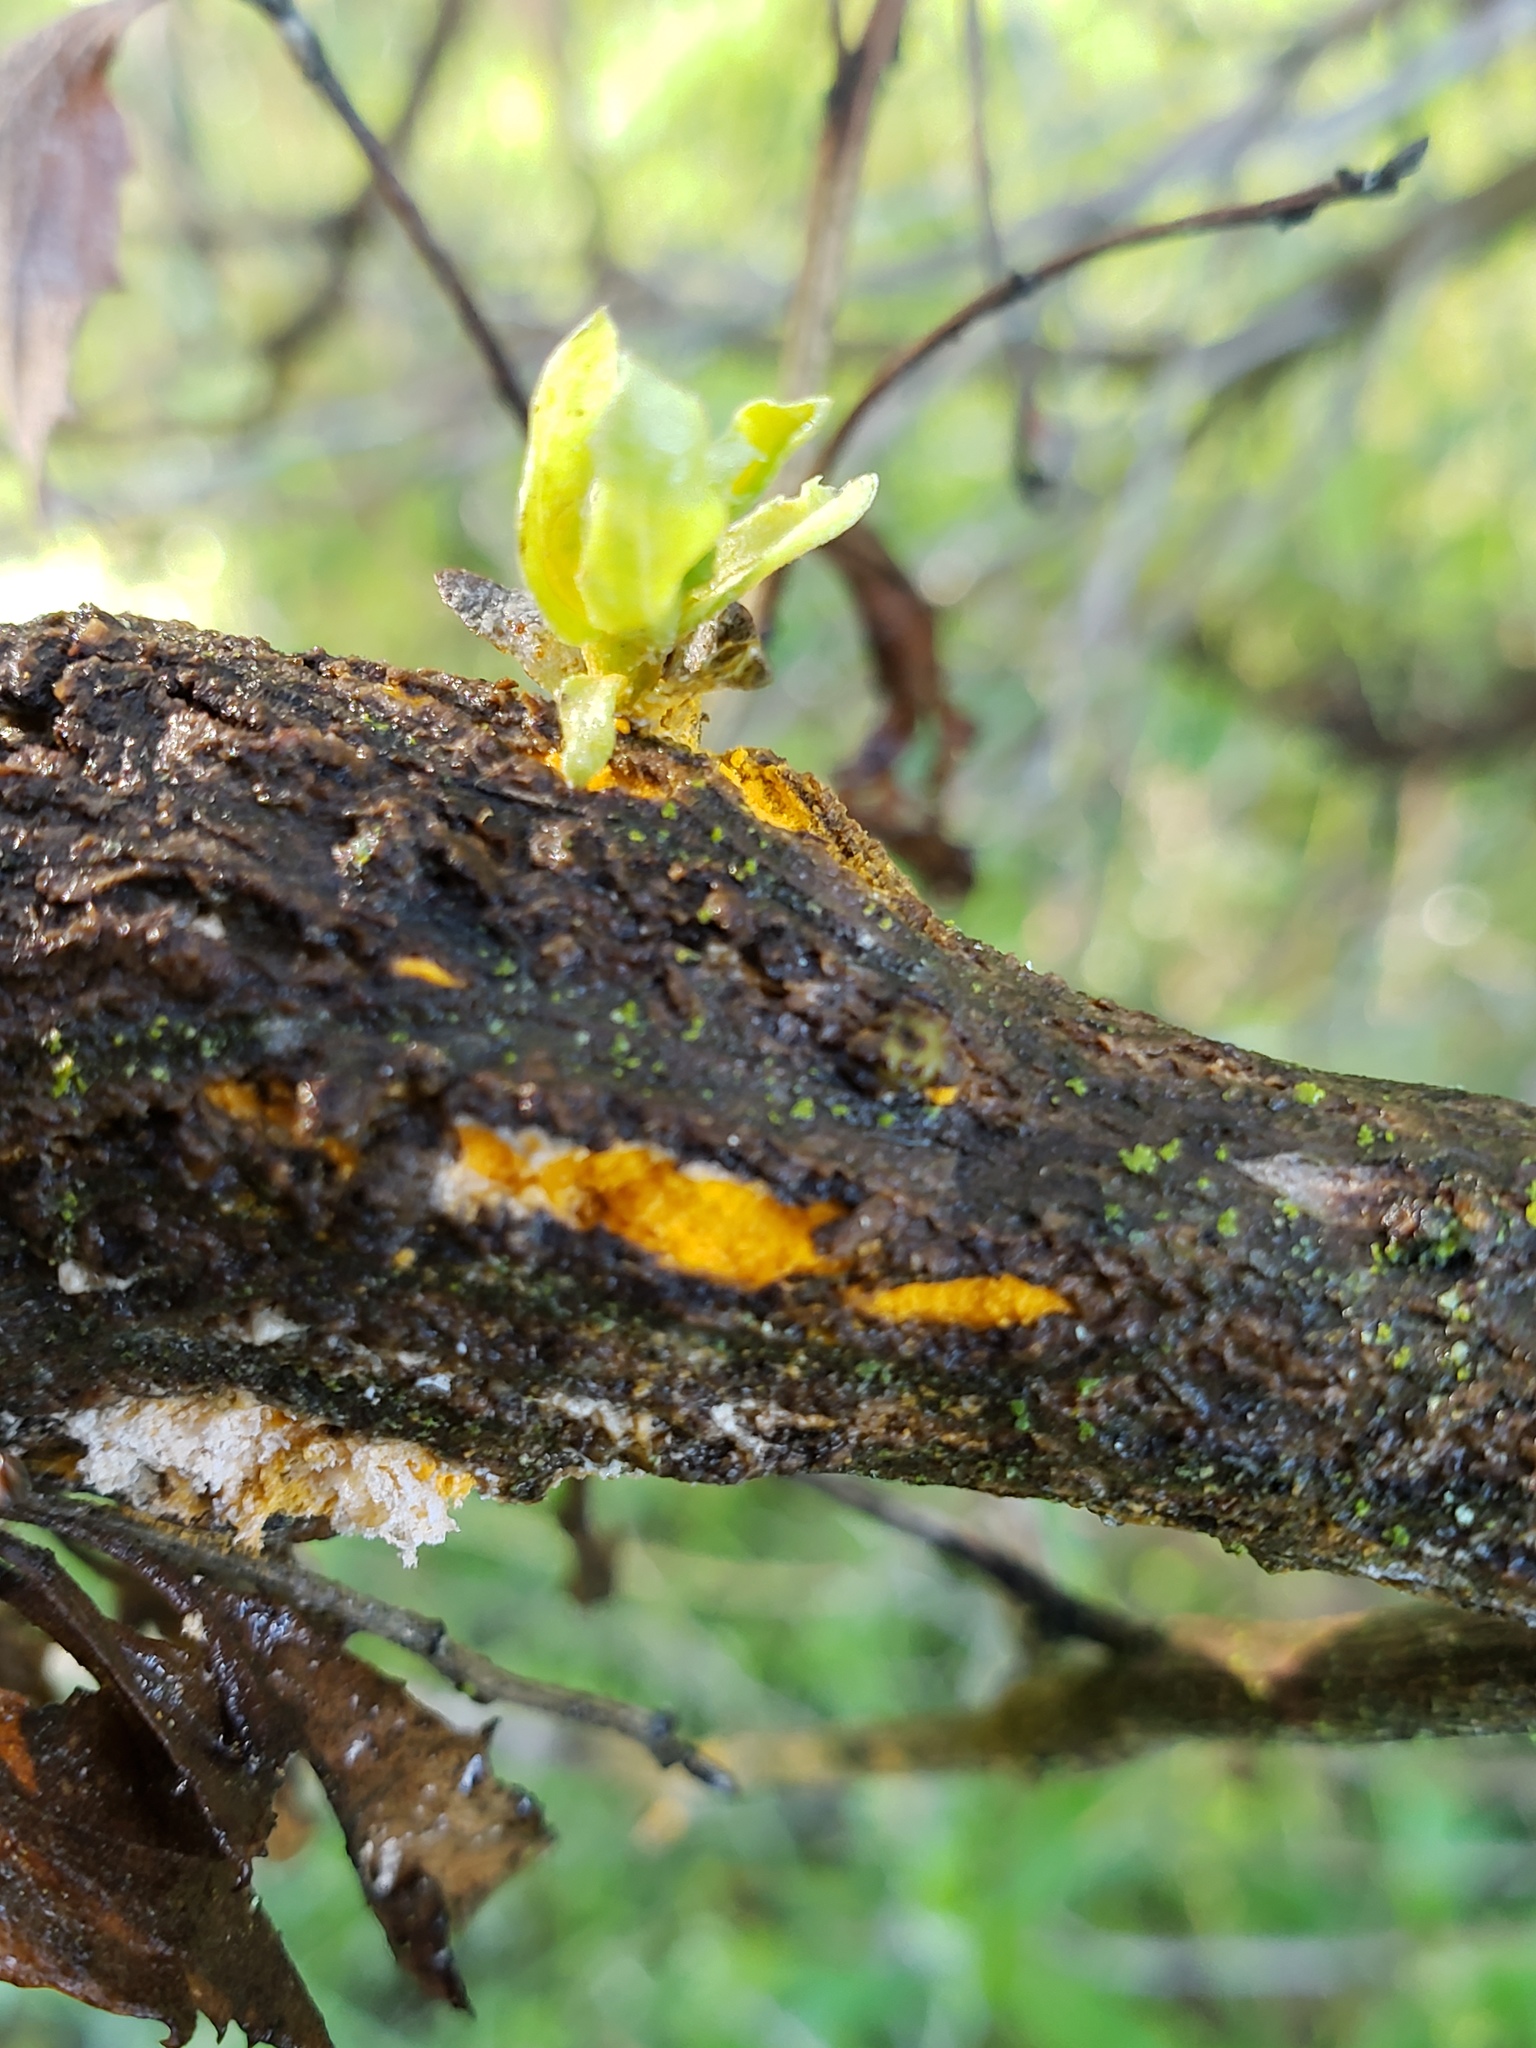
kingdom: Fungi
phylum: Basidiomycota
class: Pucciniomycetes
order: Pucciniales
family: Pucciniaceae
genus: Eriosporangium
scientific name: Eriosporangium evadens
